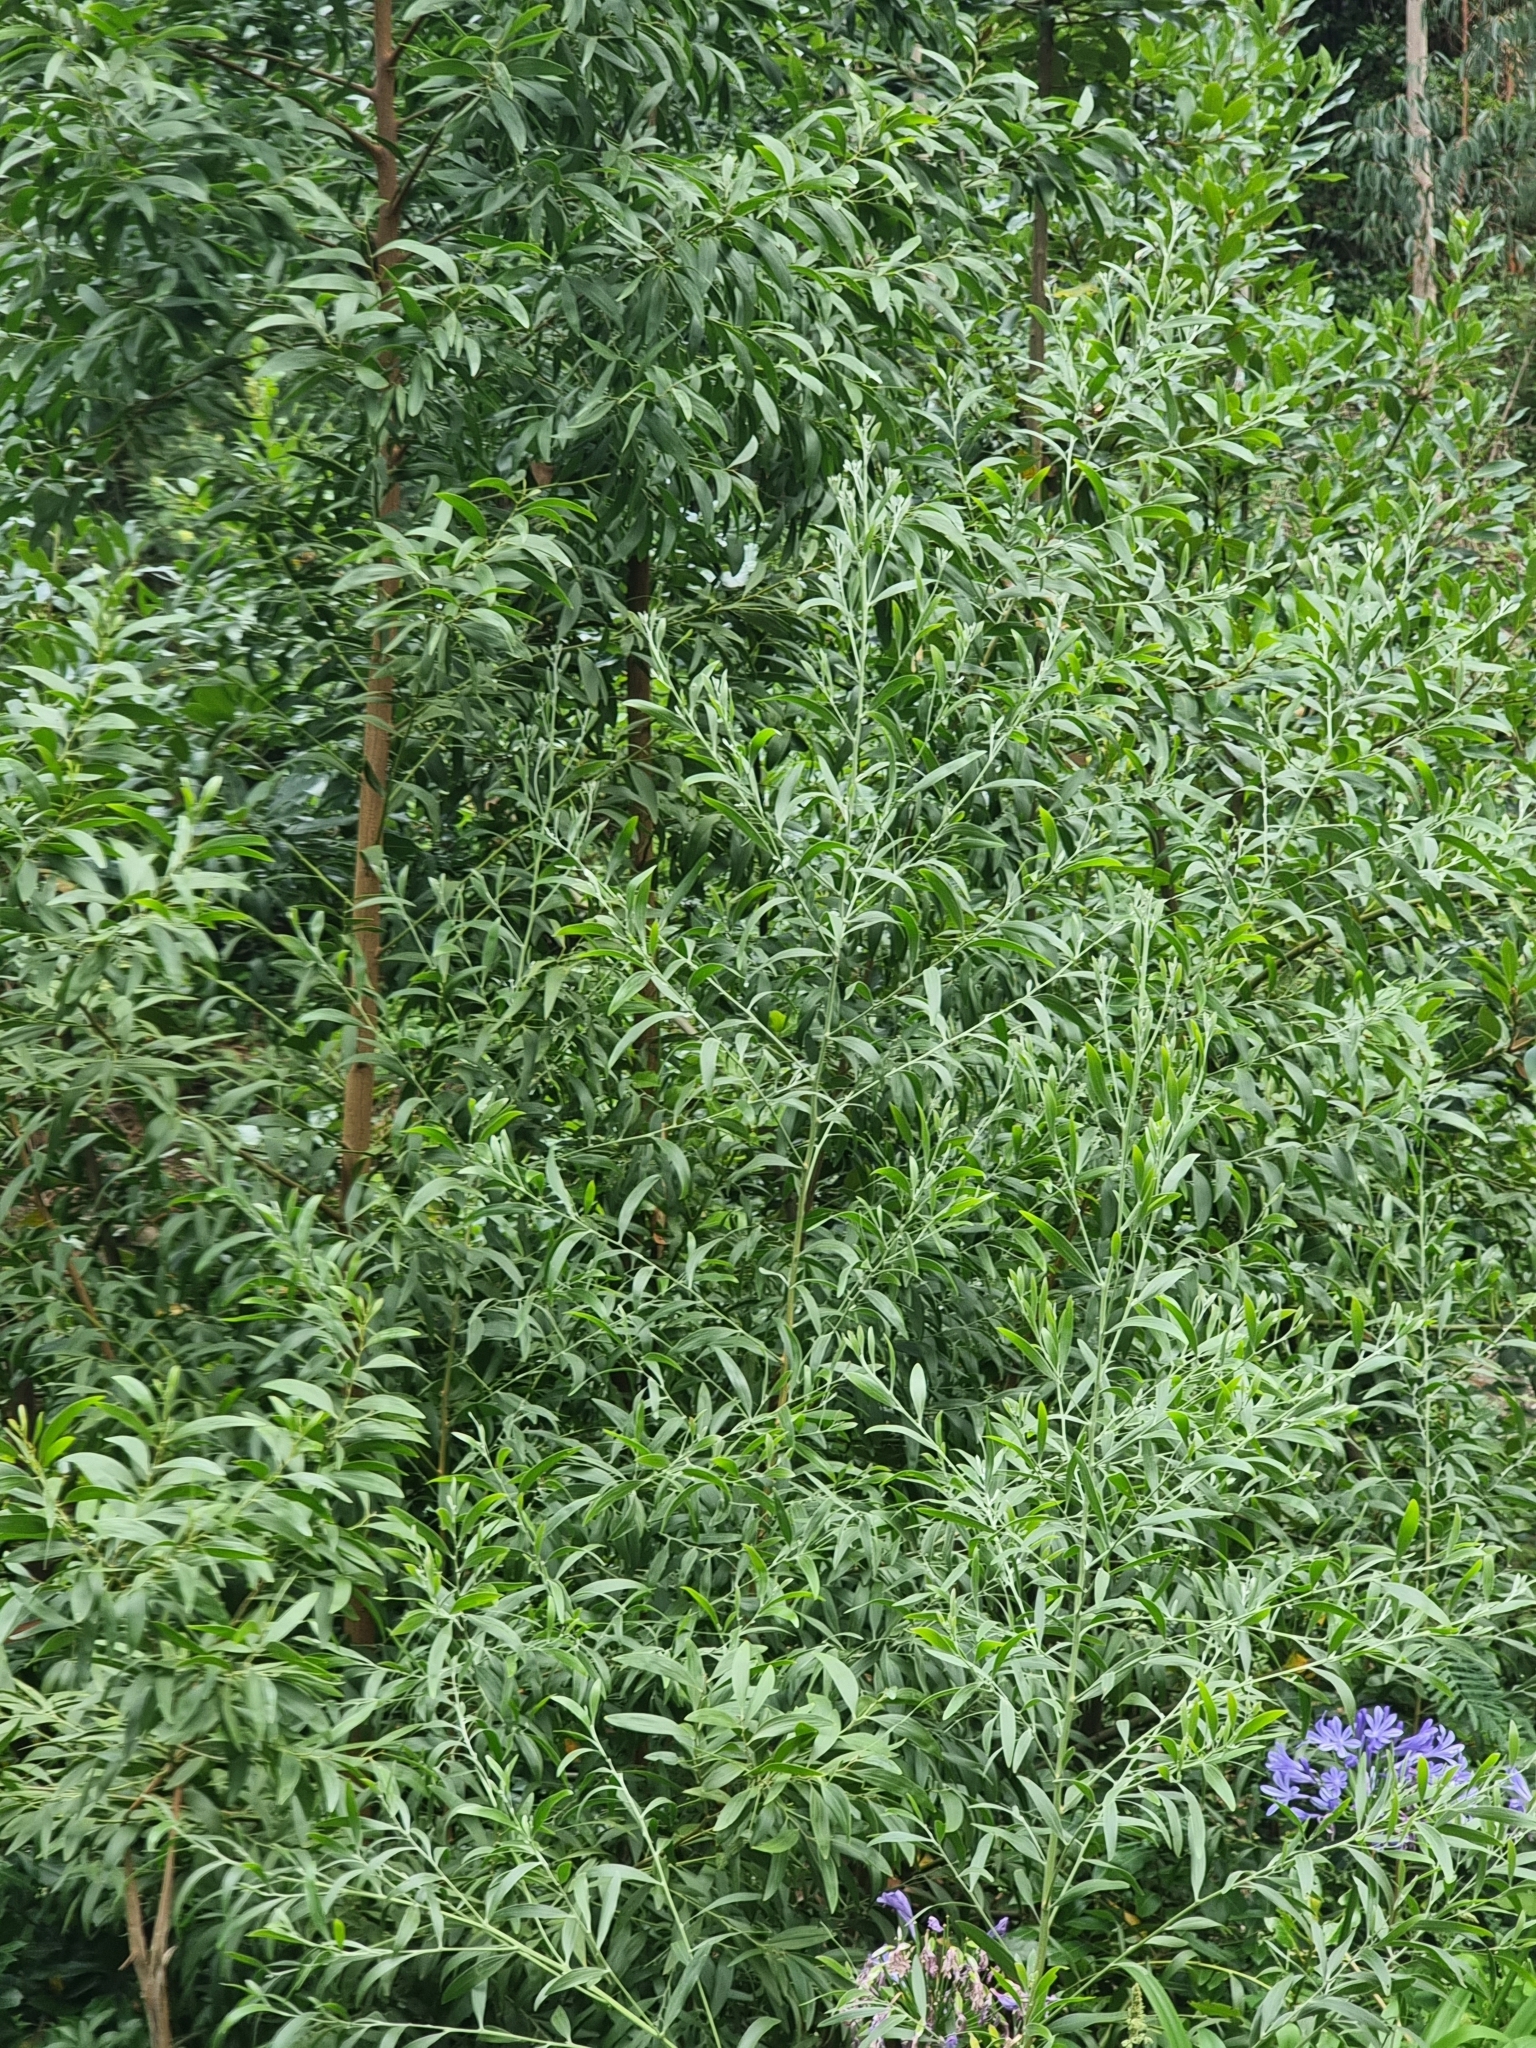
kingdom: Plantae
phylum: Tracheophyta
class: Magnoliopsida
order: Fabales
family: Fabaceae
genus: Acacia
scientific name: Acacia melanoxylon
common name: Blackwood
